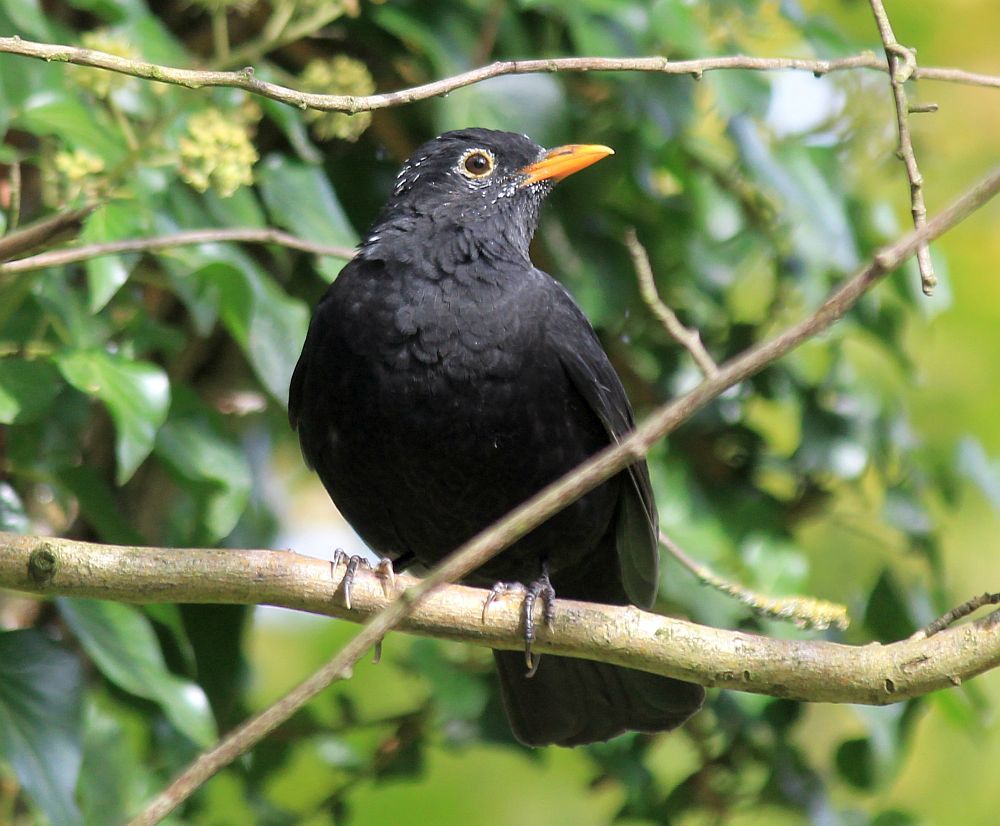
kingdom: Animalia
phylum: Chordata
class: Aves
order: Passeriformes
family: Turdidae
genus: Turdus
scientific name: Turdus merula
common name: Common blackbird
